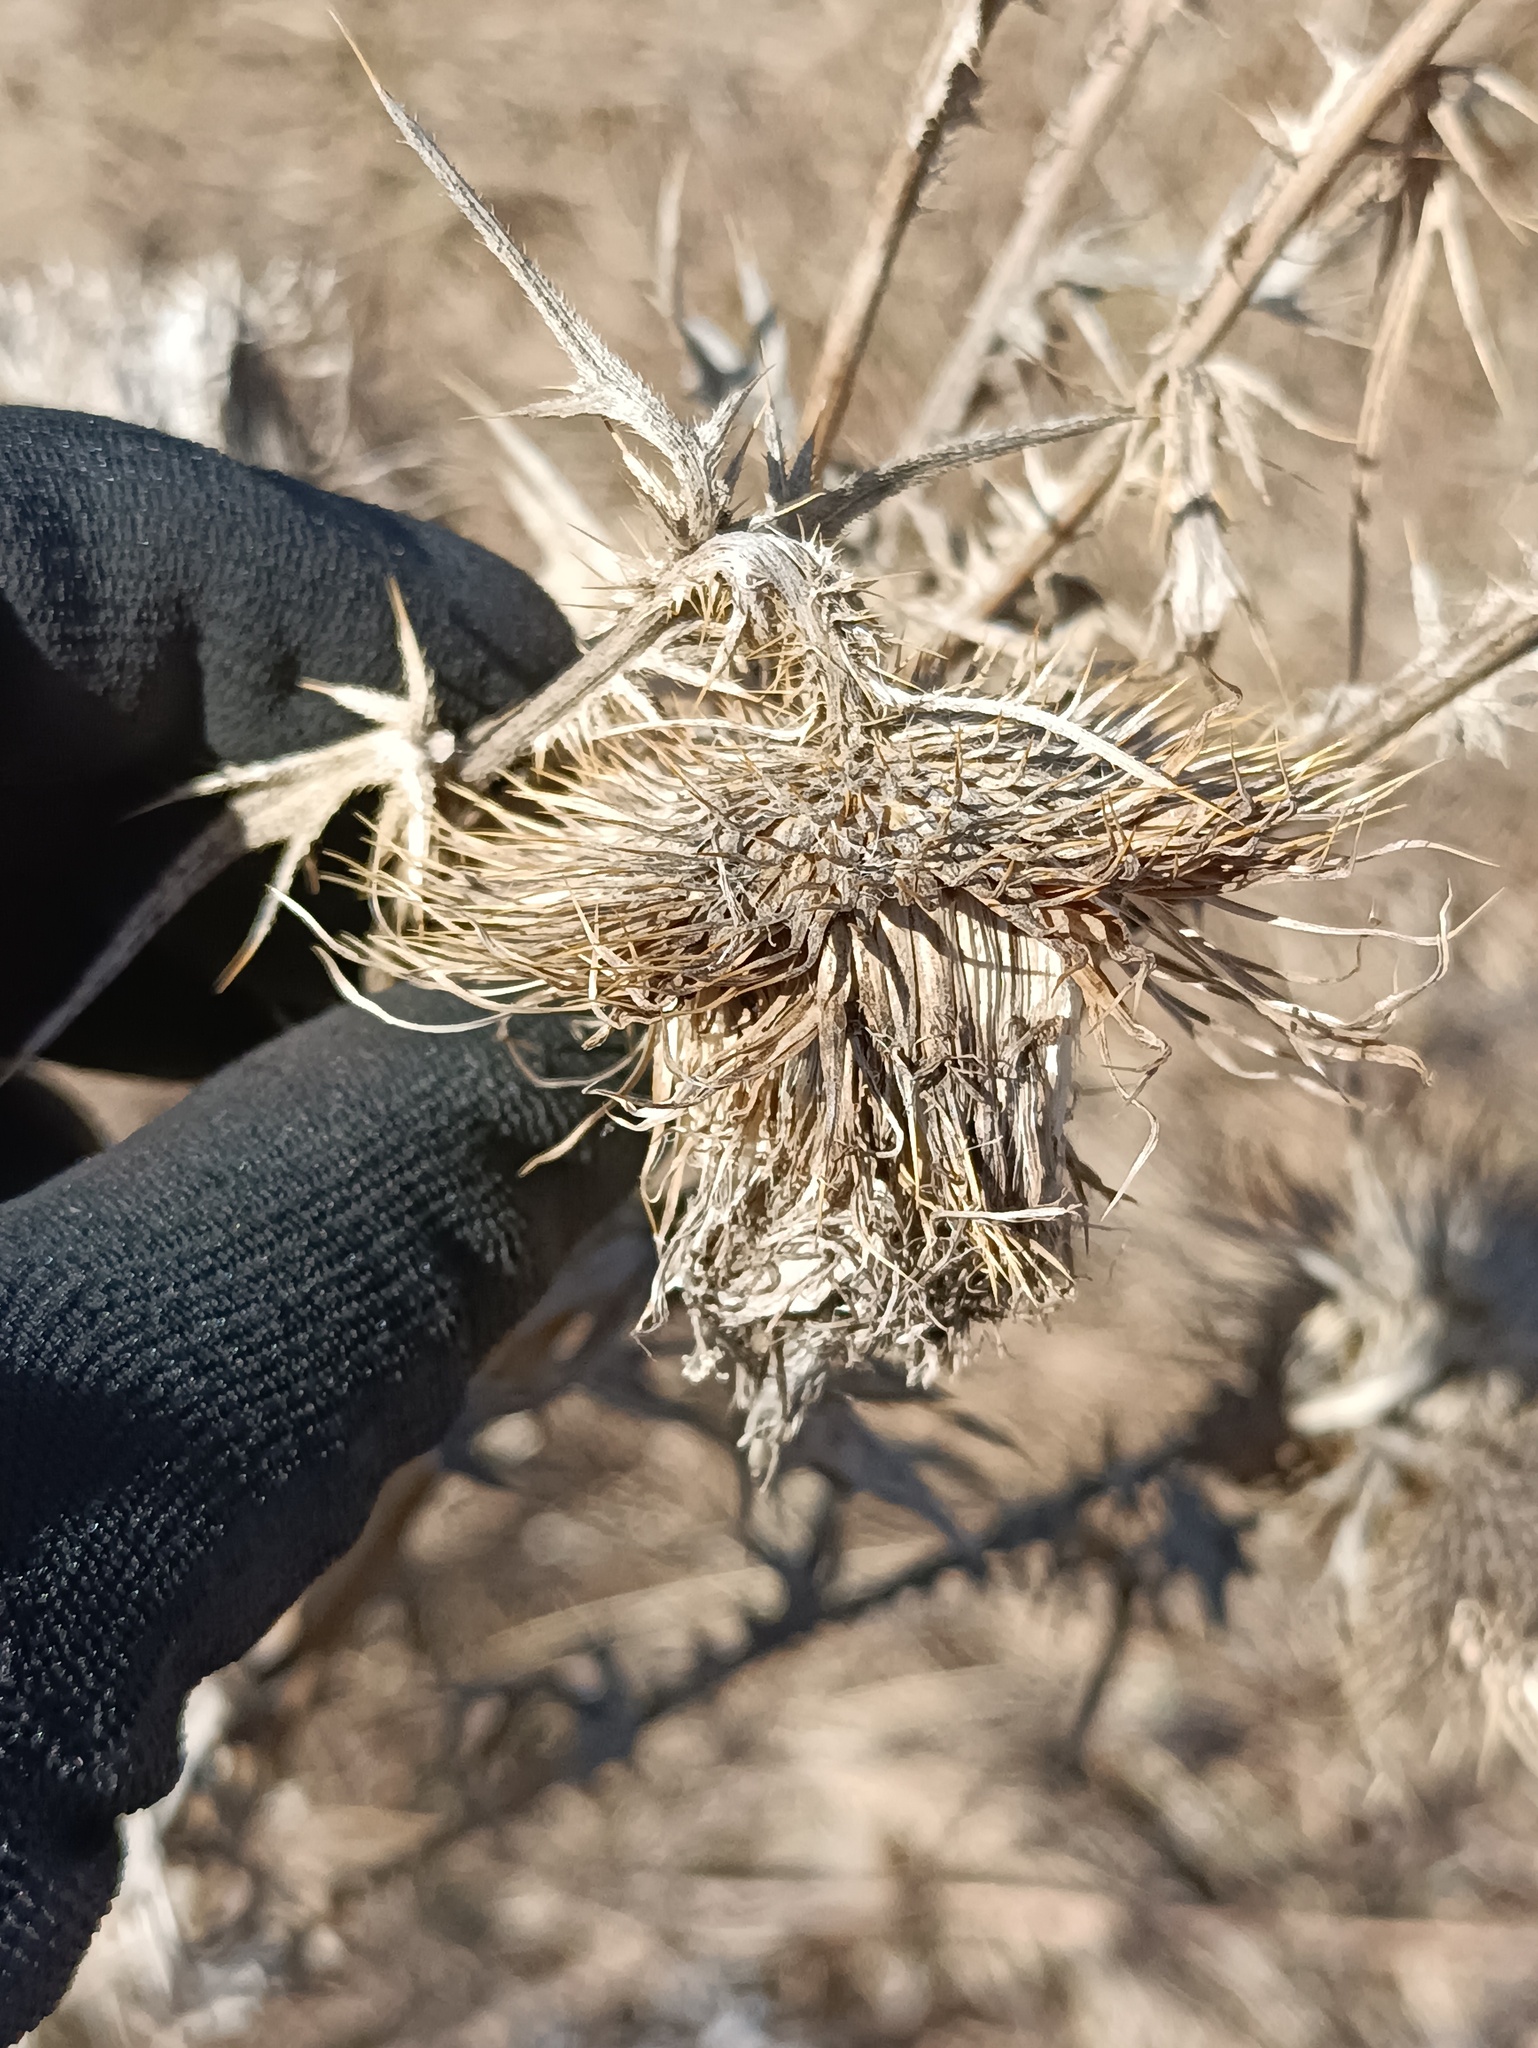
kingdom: Plantae
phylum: Tracheophyta
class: Magnoliopsida
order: Asterales
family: Asteraceae
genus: Cirsium
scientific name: Cirsium vulgare
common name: Bull thistle
